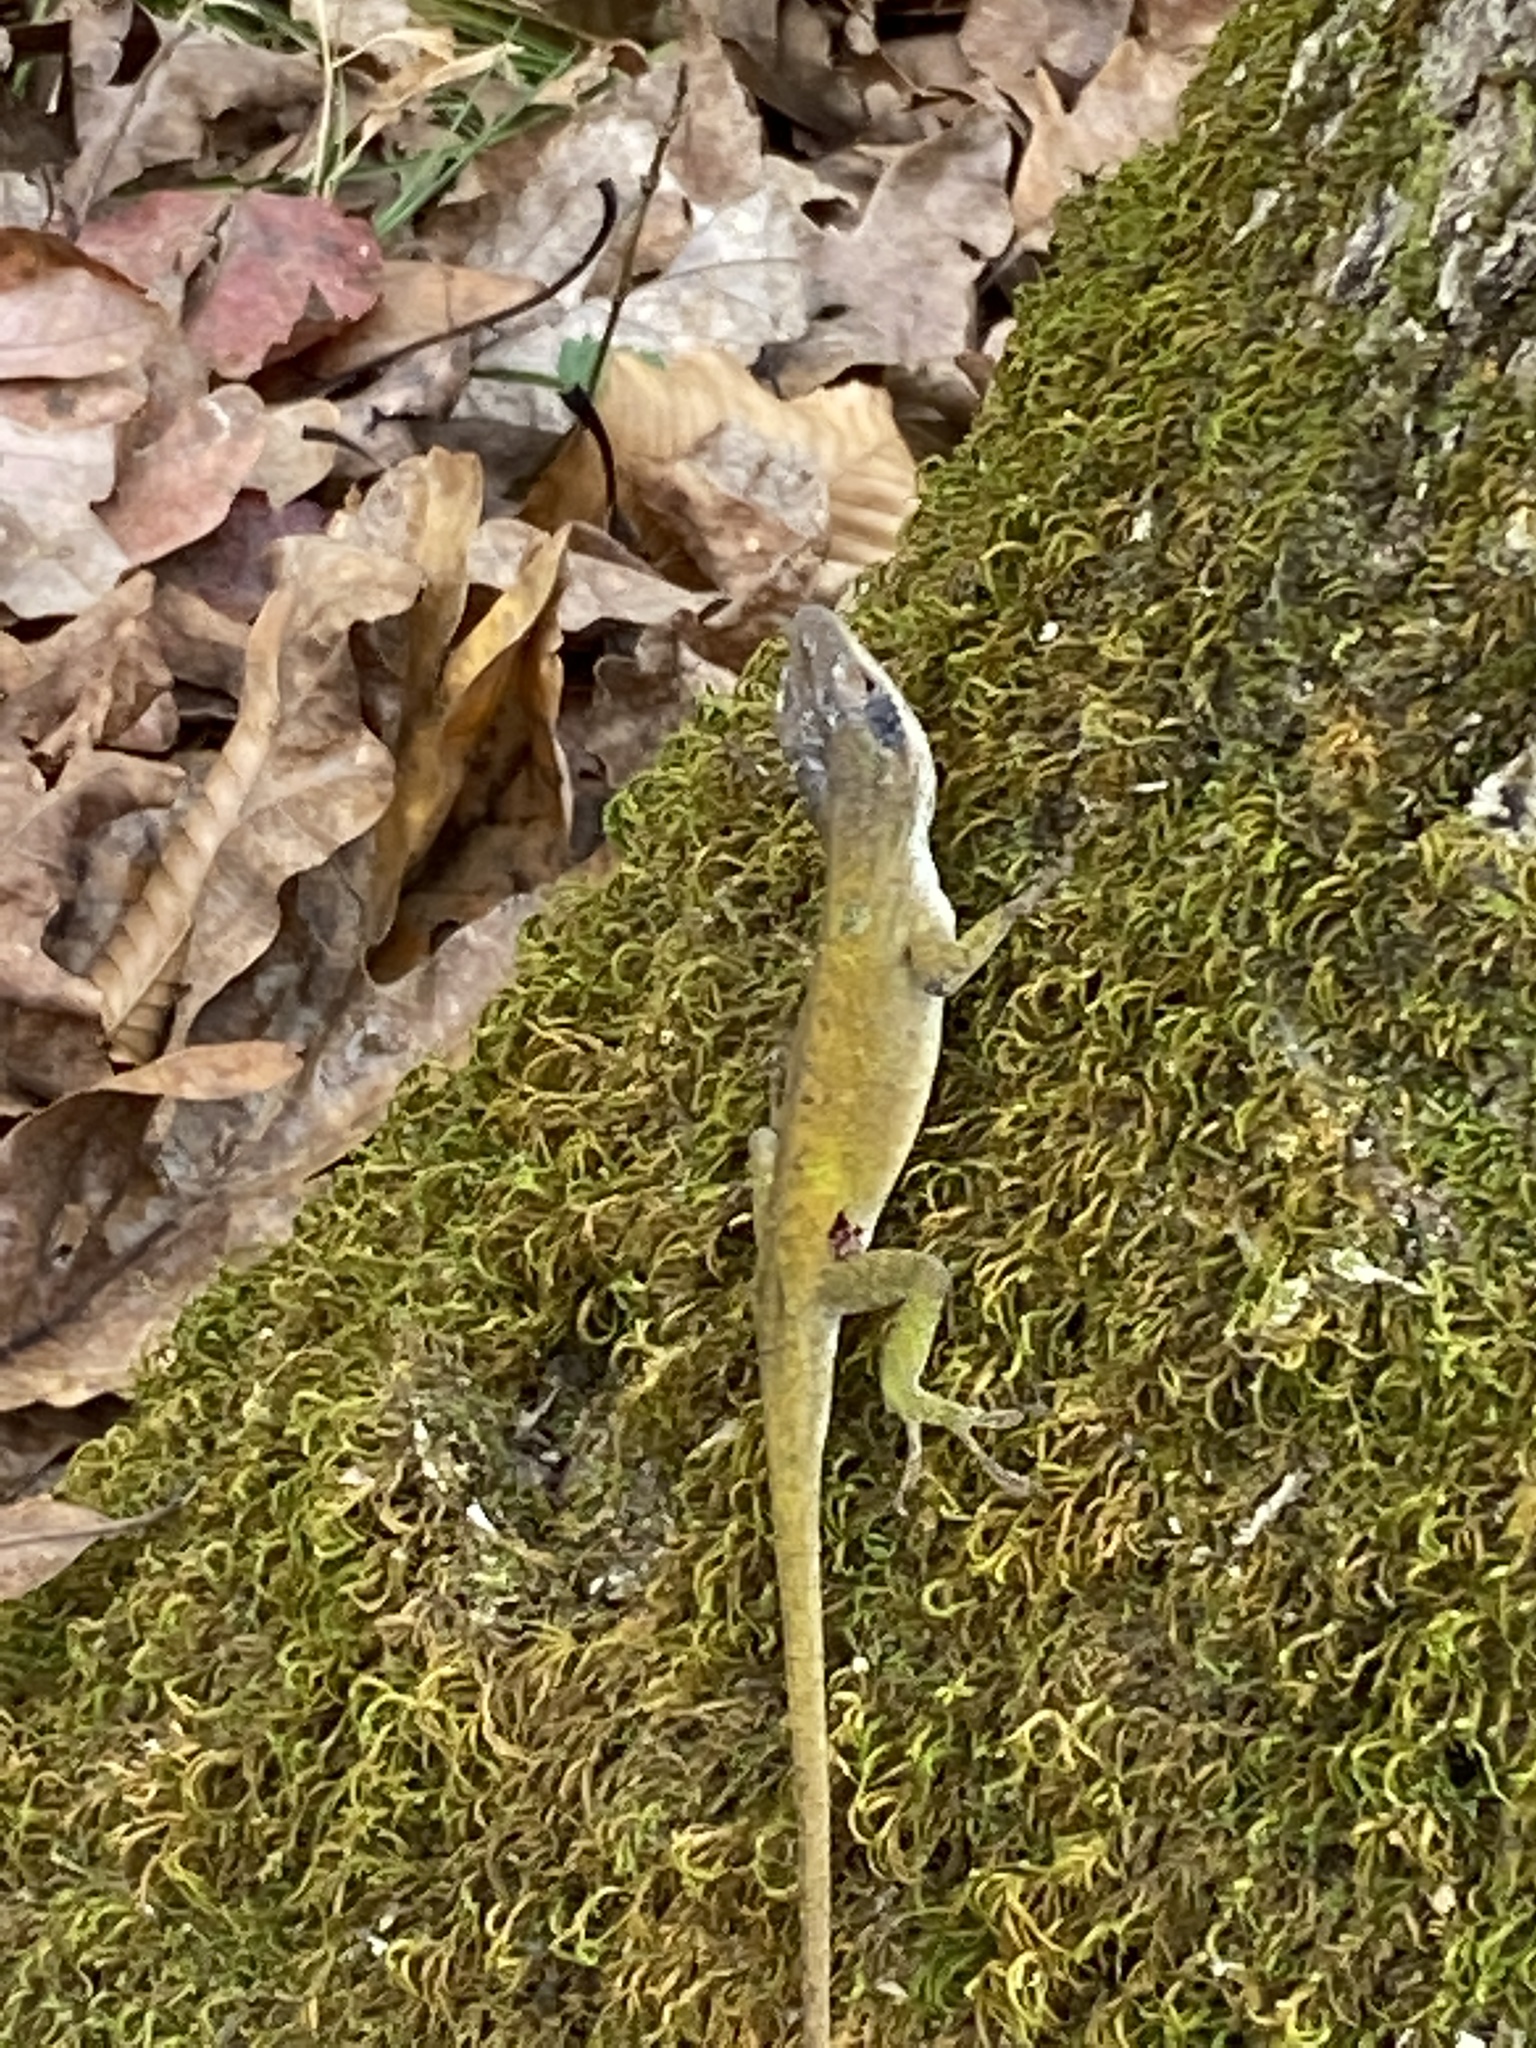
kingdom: Animalia
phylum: Chordata
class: Squamata
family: Dactyloidae
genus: Anolis
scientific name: Anolis carolinensis
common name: Green anole
